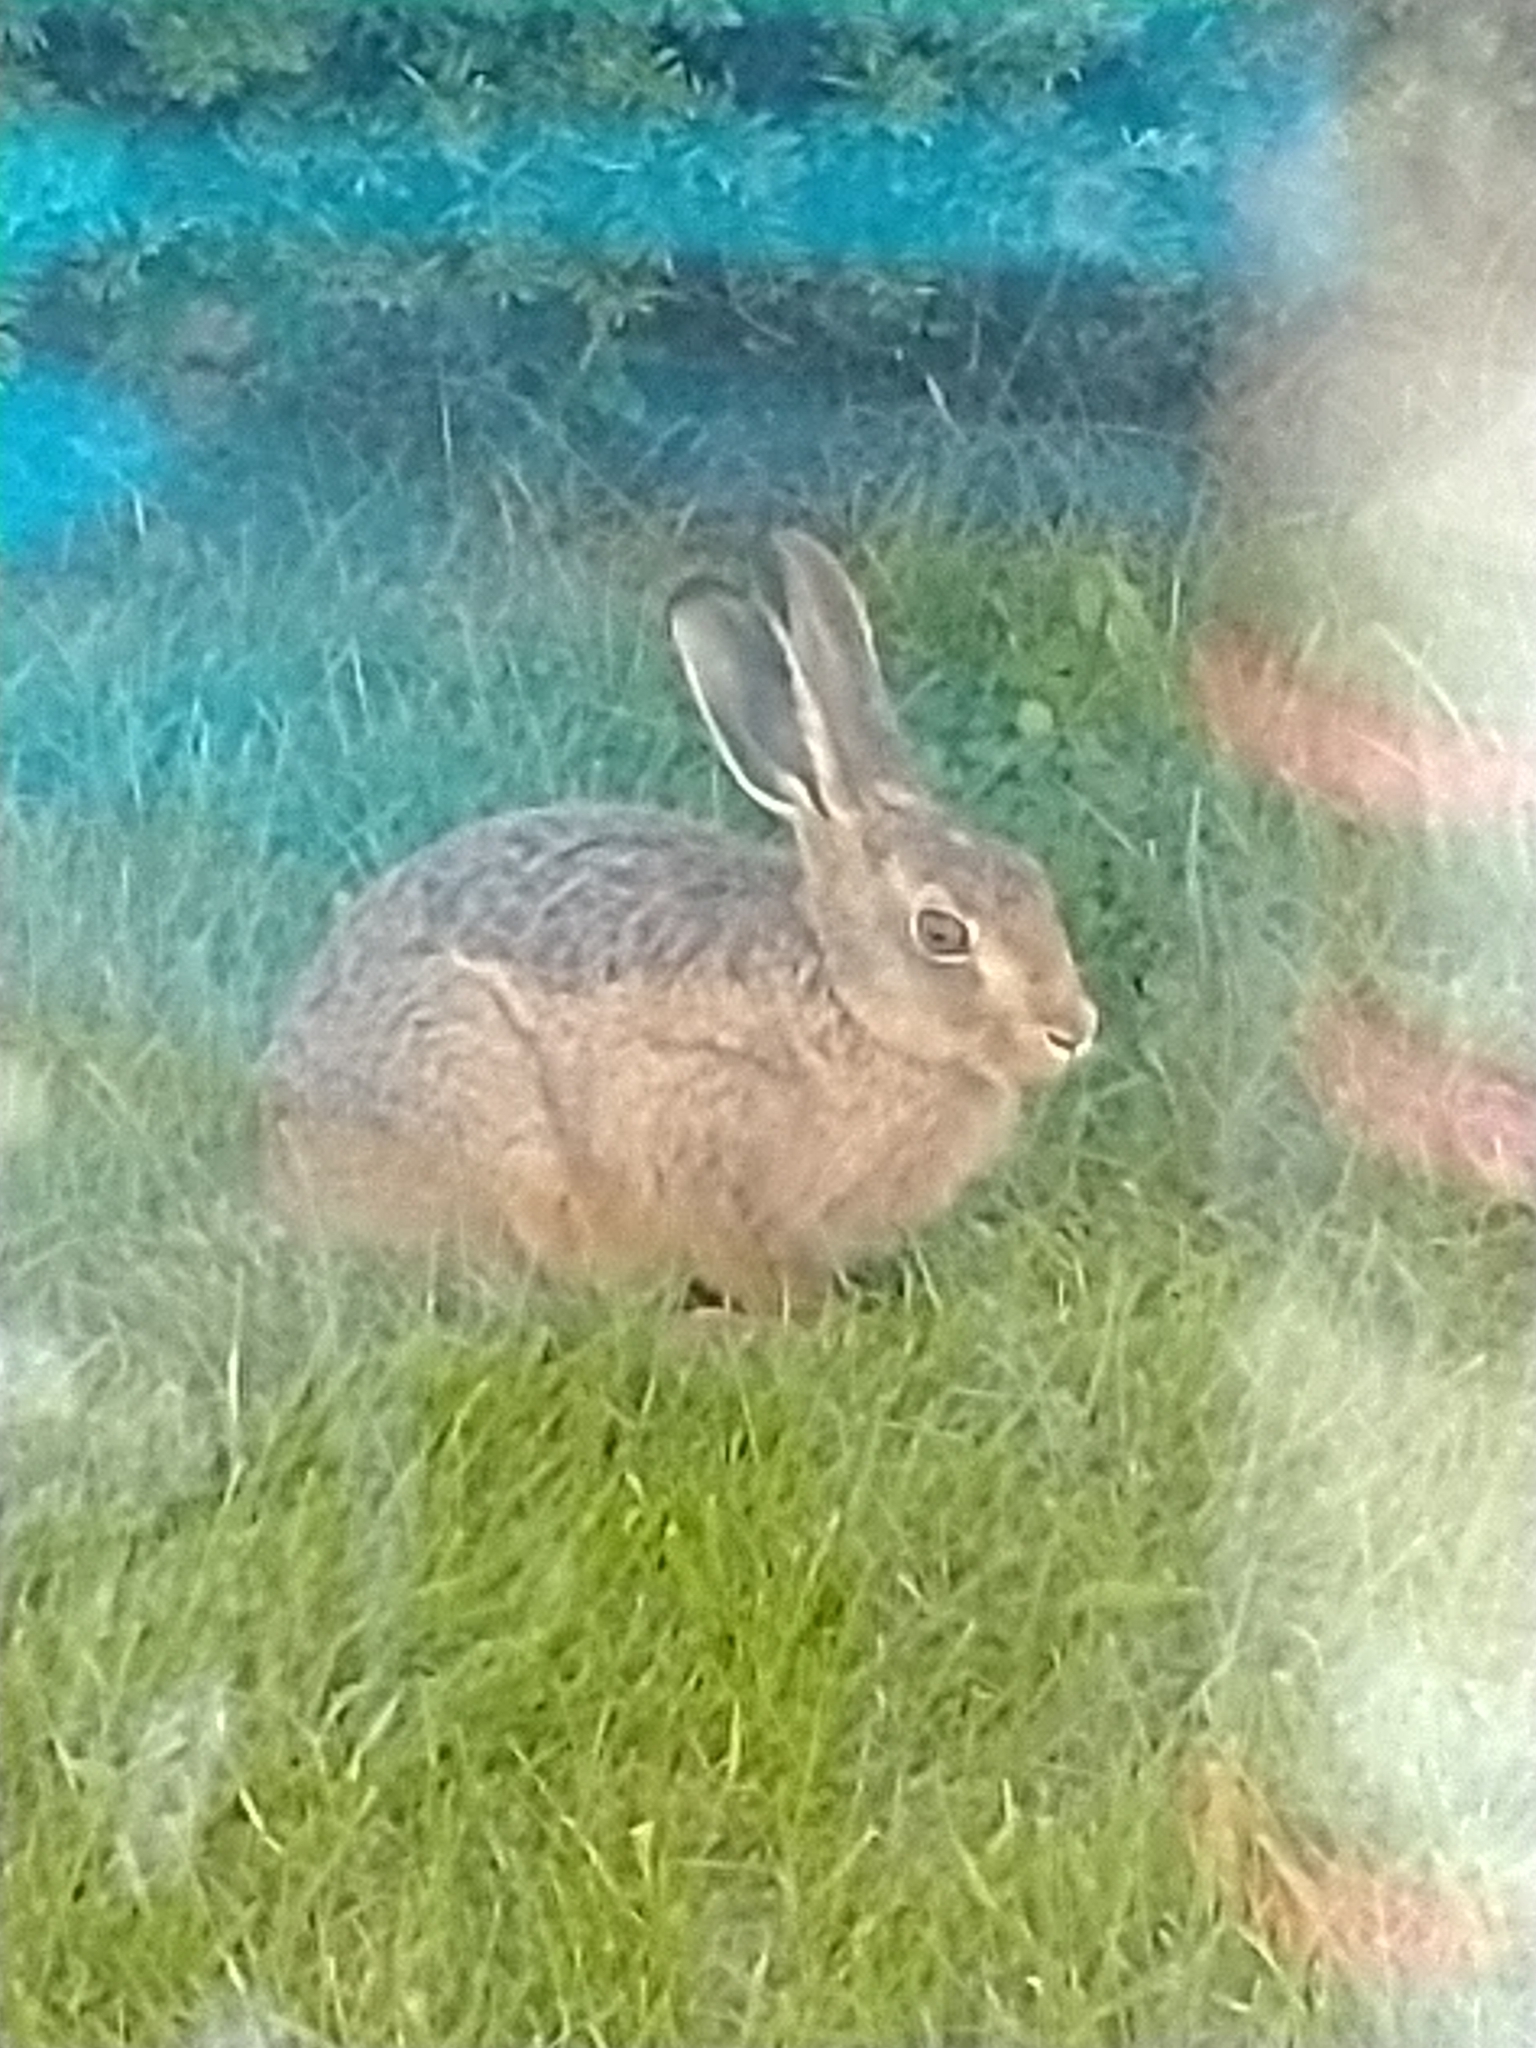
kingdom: Animalia
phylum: Chordata
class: Mammalia
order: Lagomorpha
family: Leporidae
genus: Lepus
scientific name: Lepus europaeus
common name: European hare
